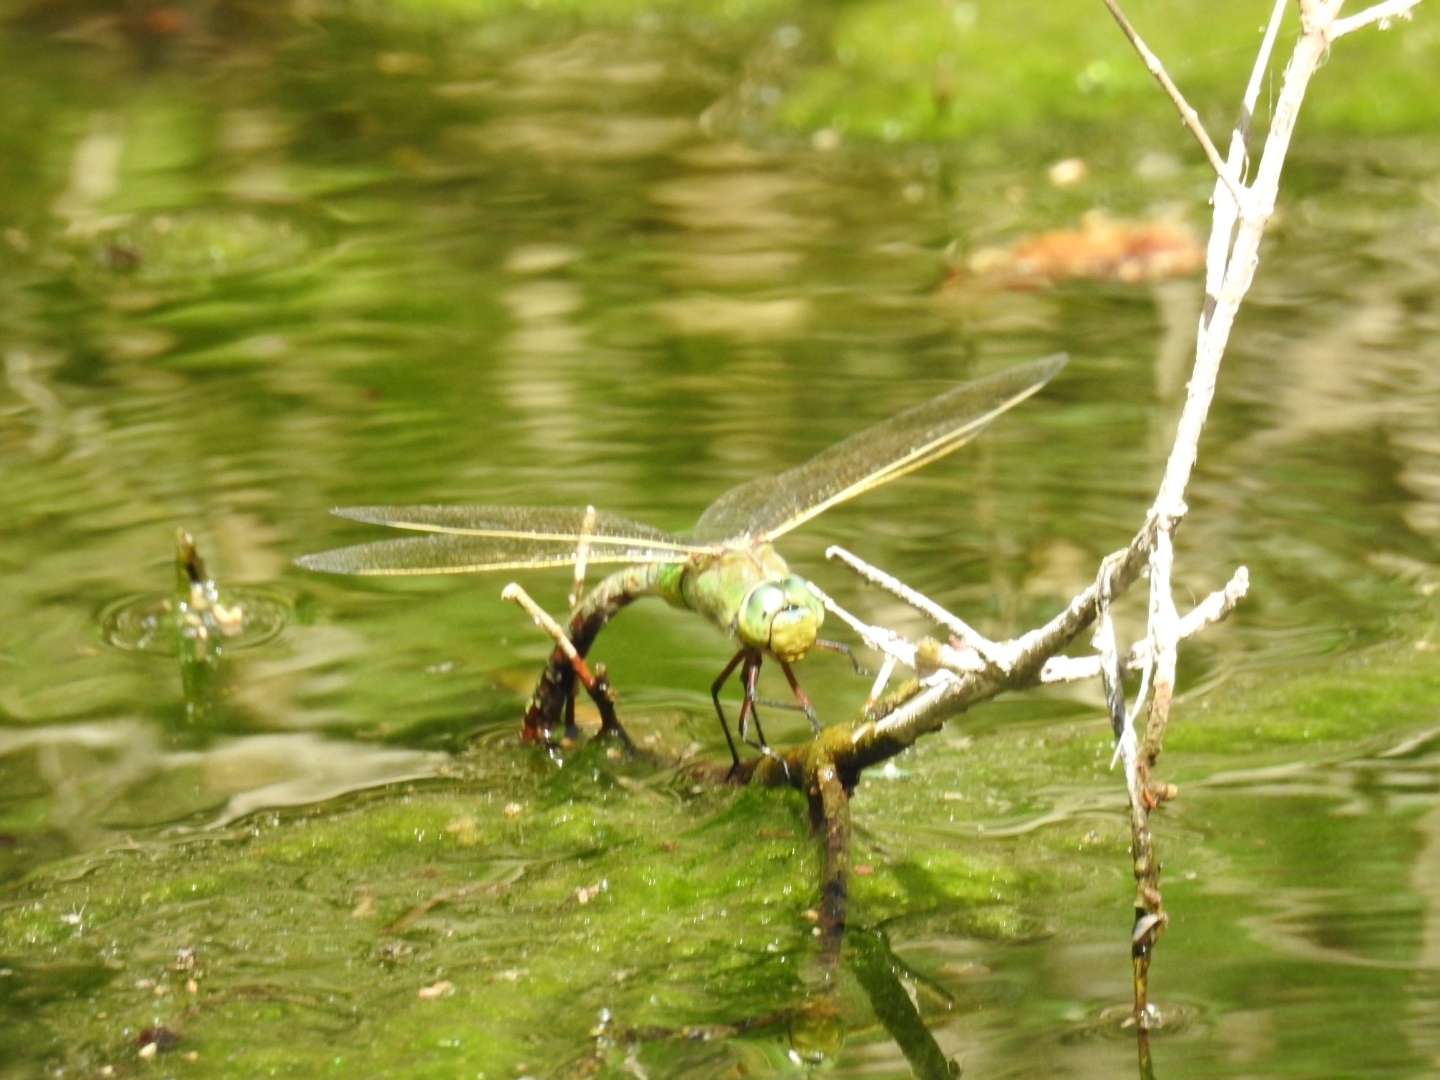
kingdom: Animalia
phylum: Arthropoda
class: Insecta
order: Odonata
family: Aeshnidae
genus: Anax
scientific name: Anax imperator
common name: Emperor dragonfly
